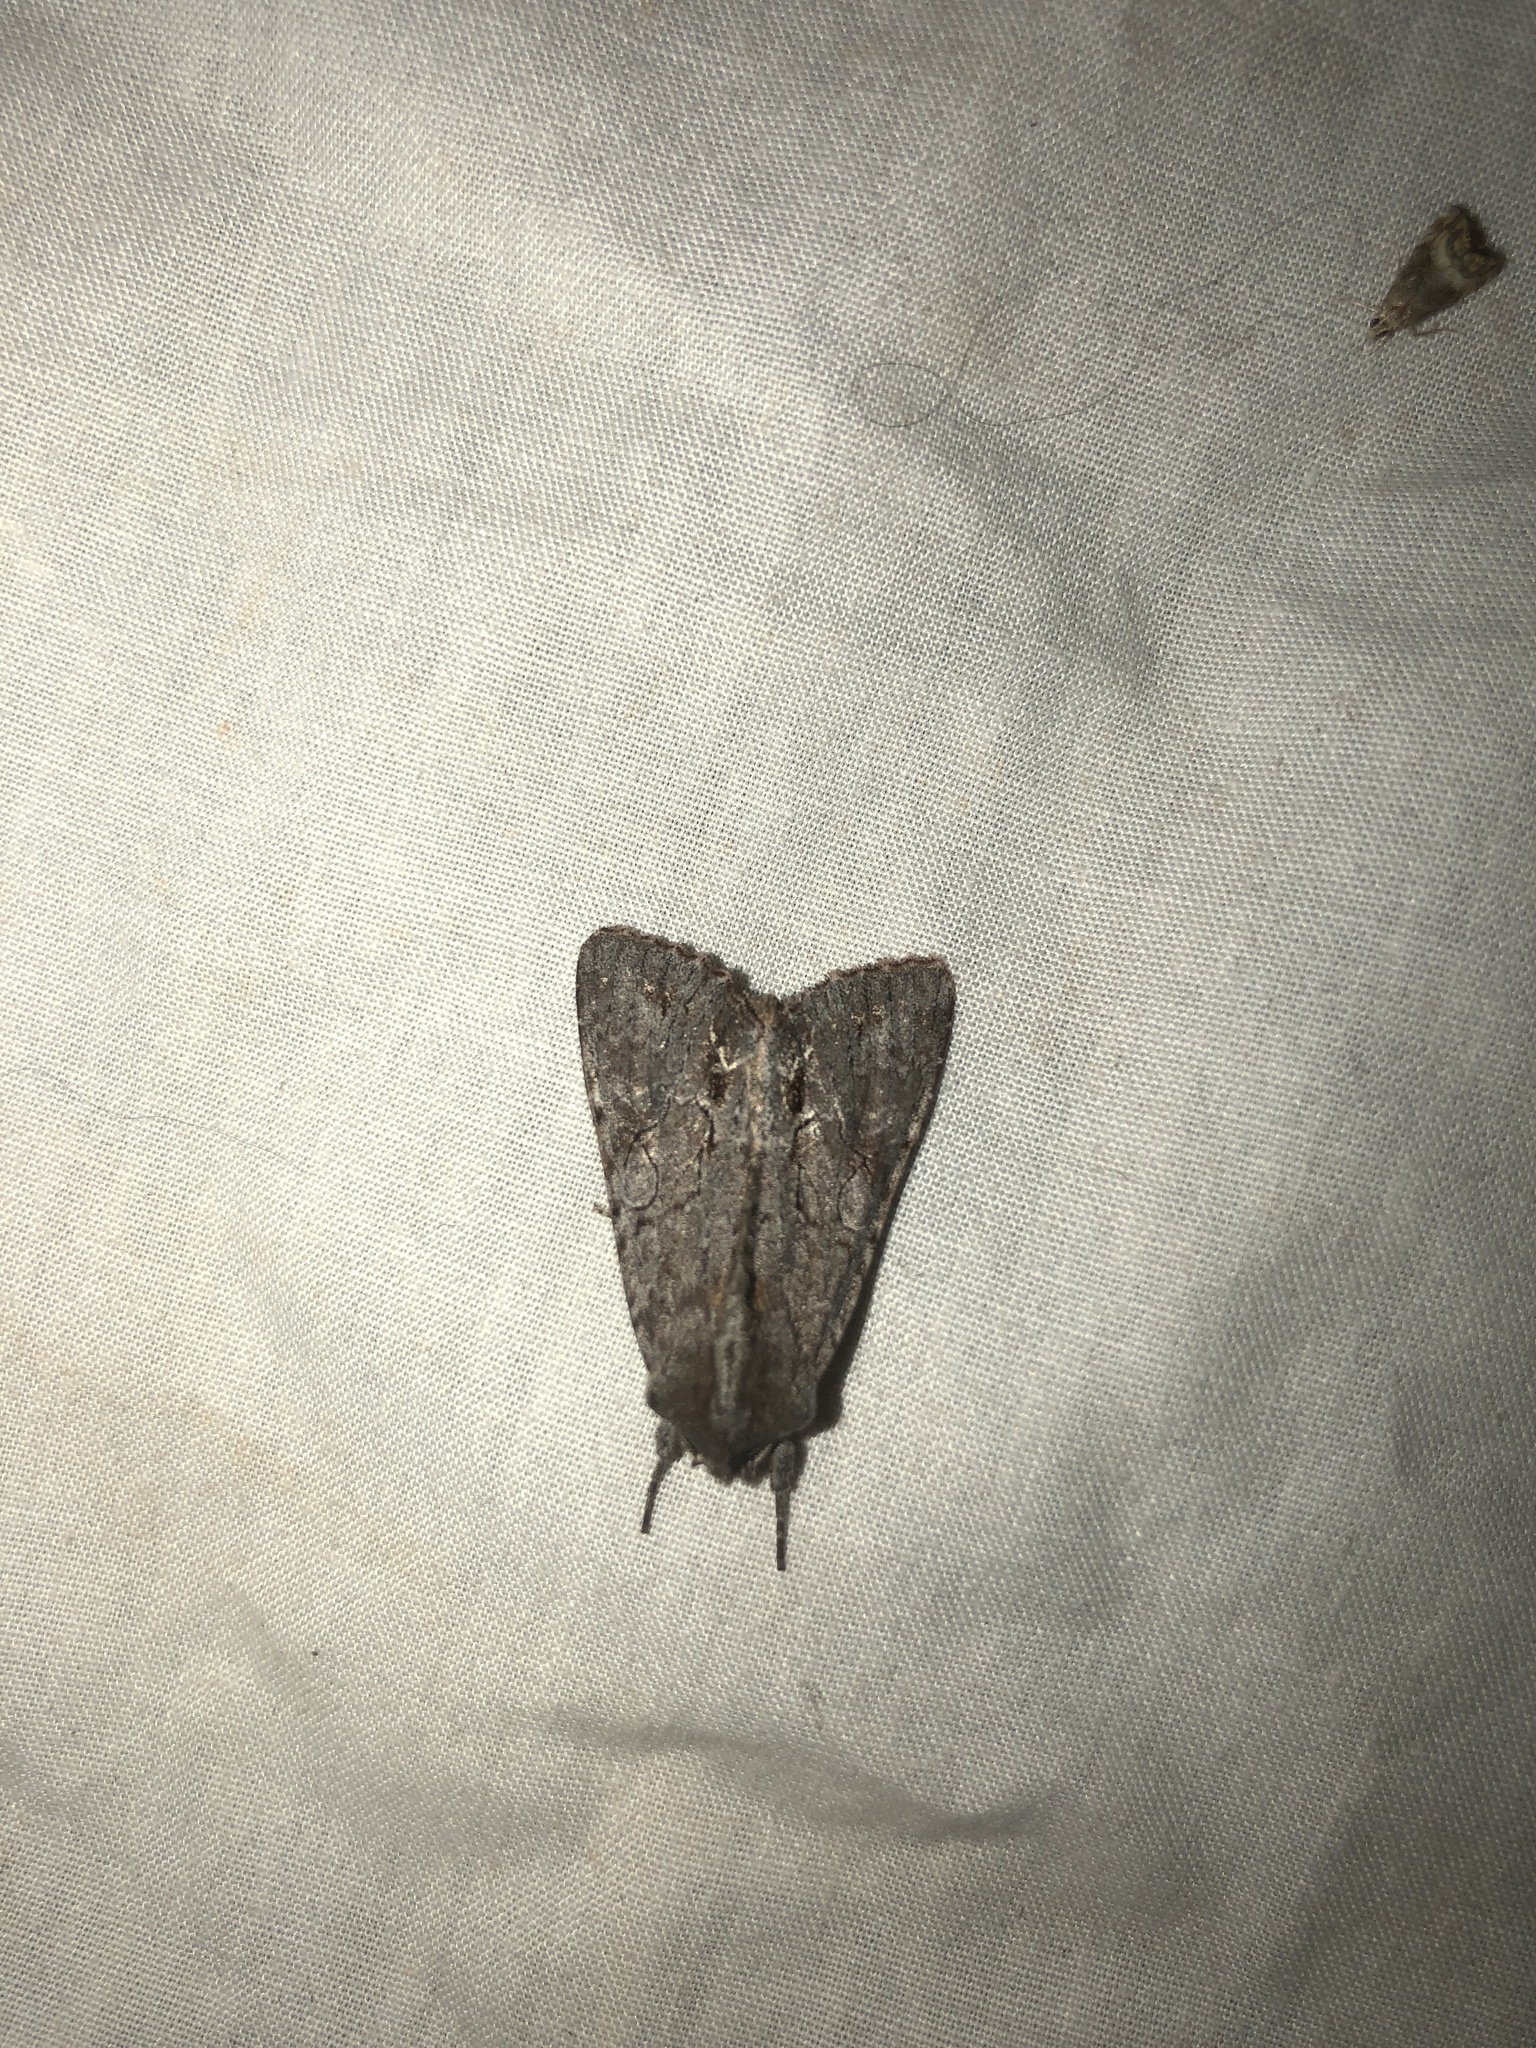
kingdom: Animalia
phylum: Arthropoda
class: Insecta
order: Lepidoptera
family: Noctuidae
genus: Ichneutica
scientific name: Ichneutica
